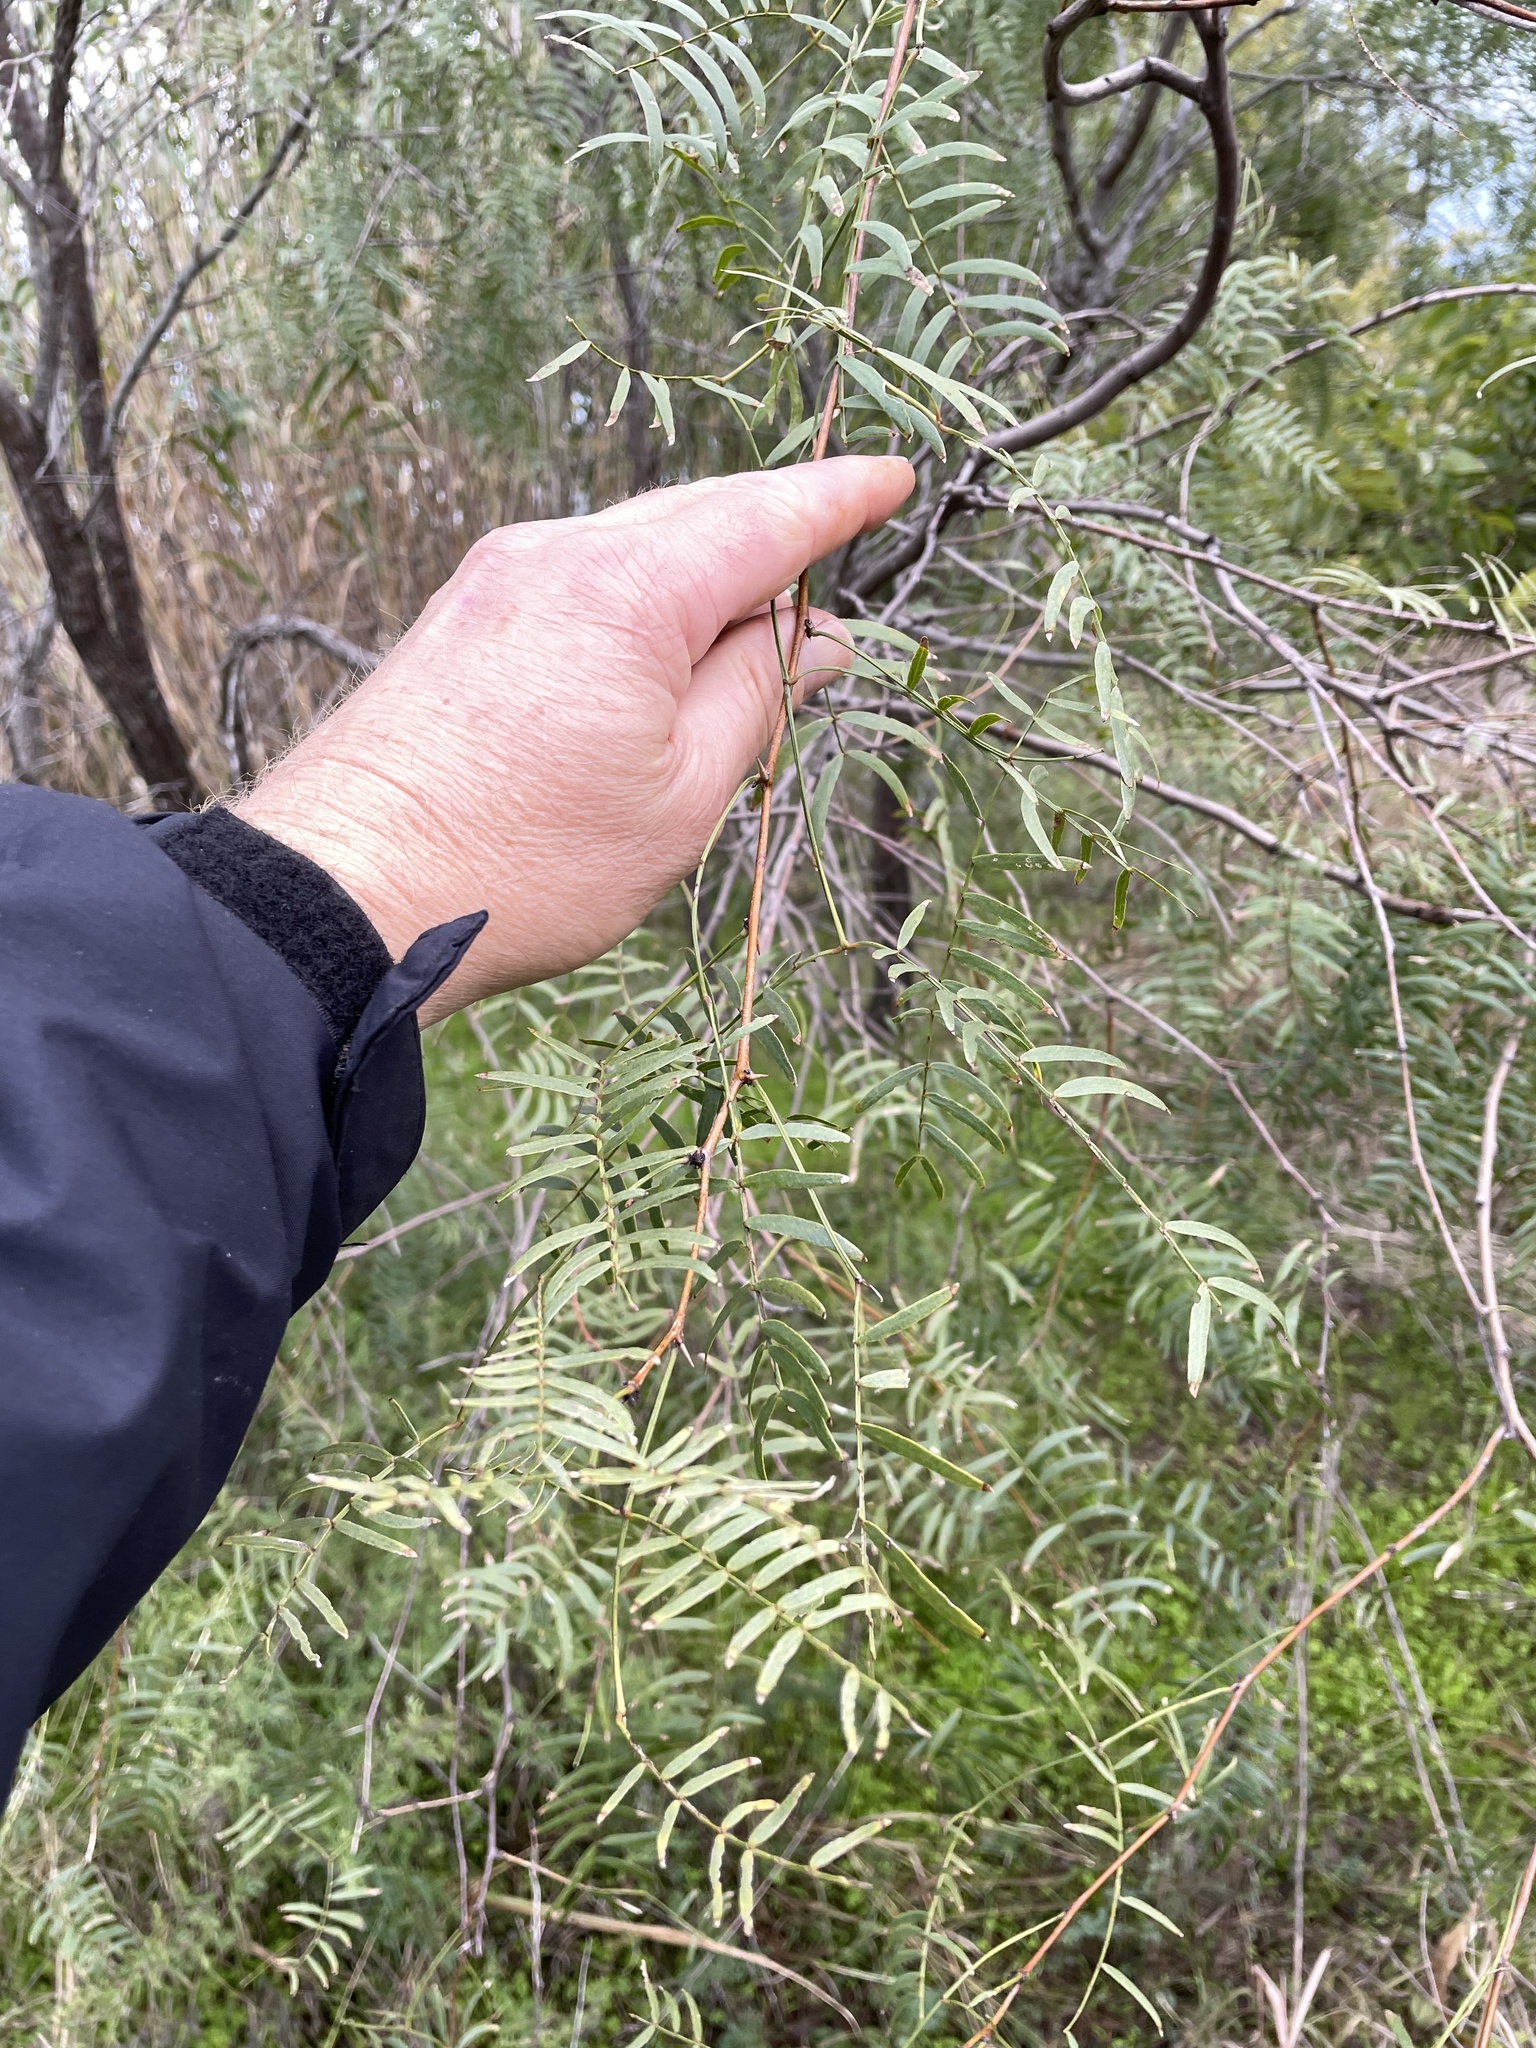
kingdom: Plantae
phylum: Tracheophyta
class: Magnoliopsida
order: Fabales
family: Fabaceae
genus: Prosopis
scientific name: Prosopis glandulosa
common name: Honey mesquite
